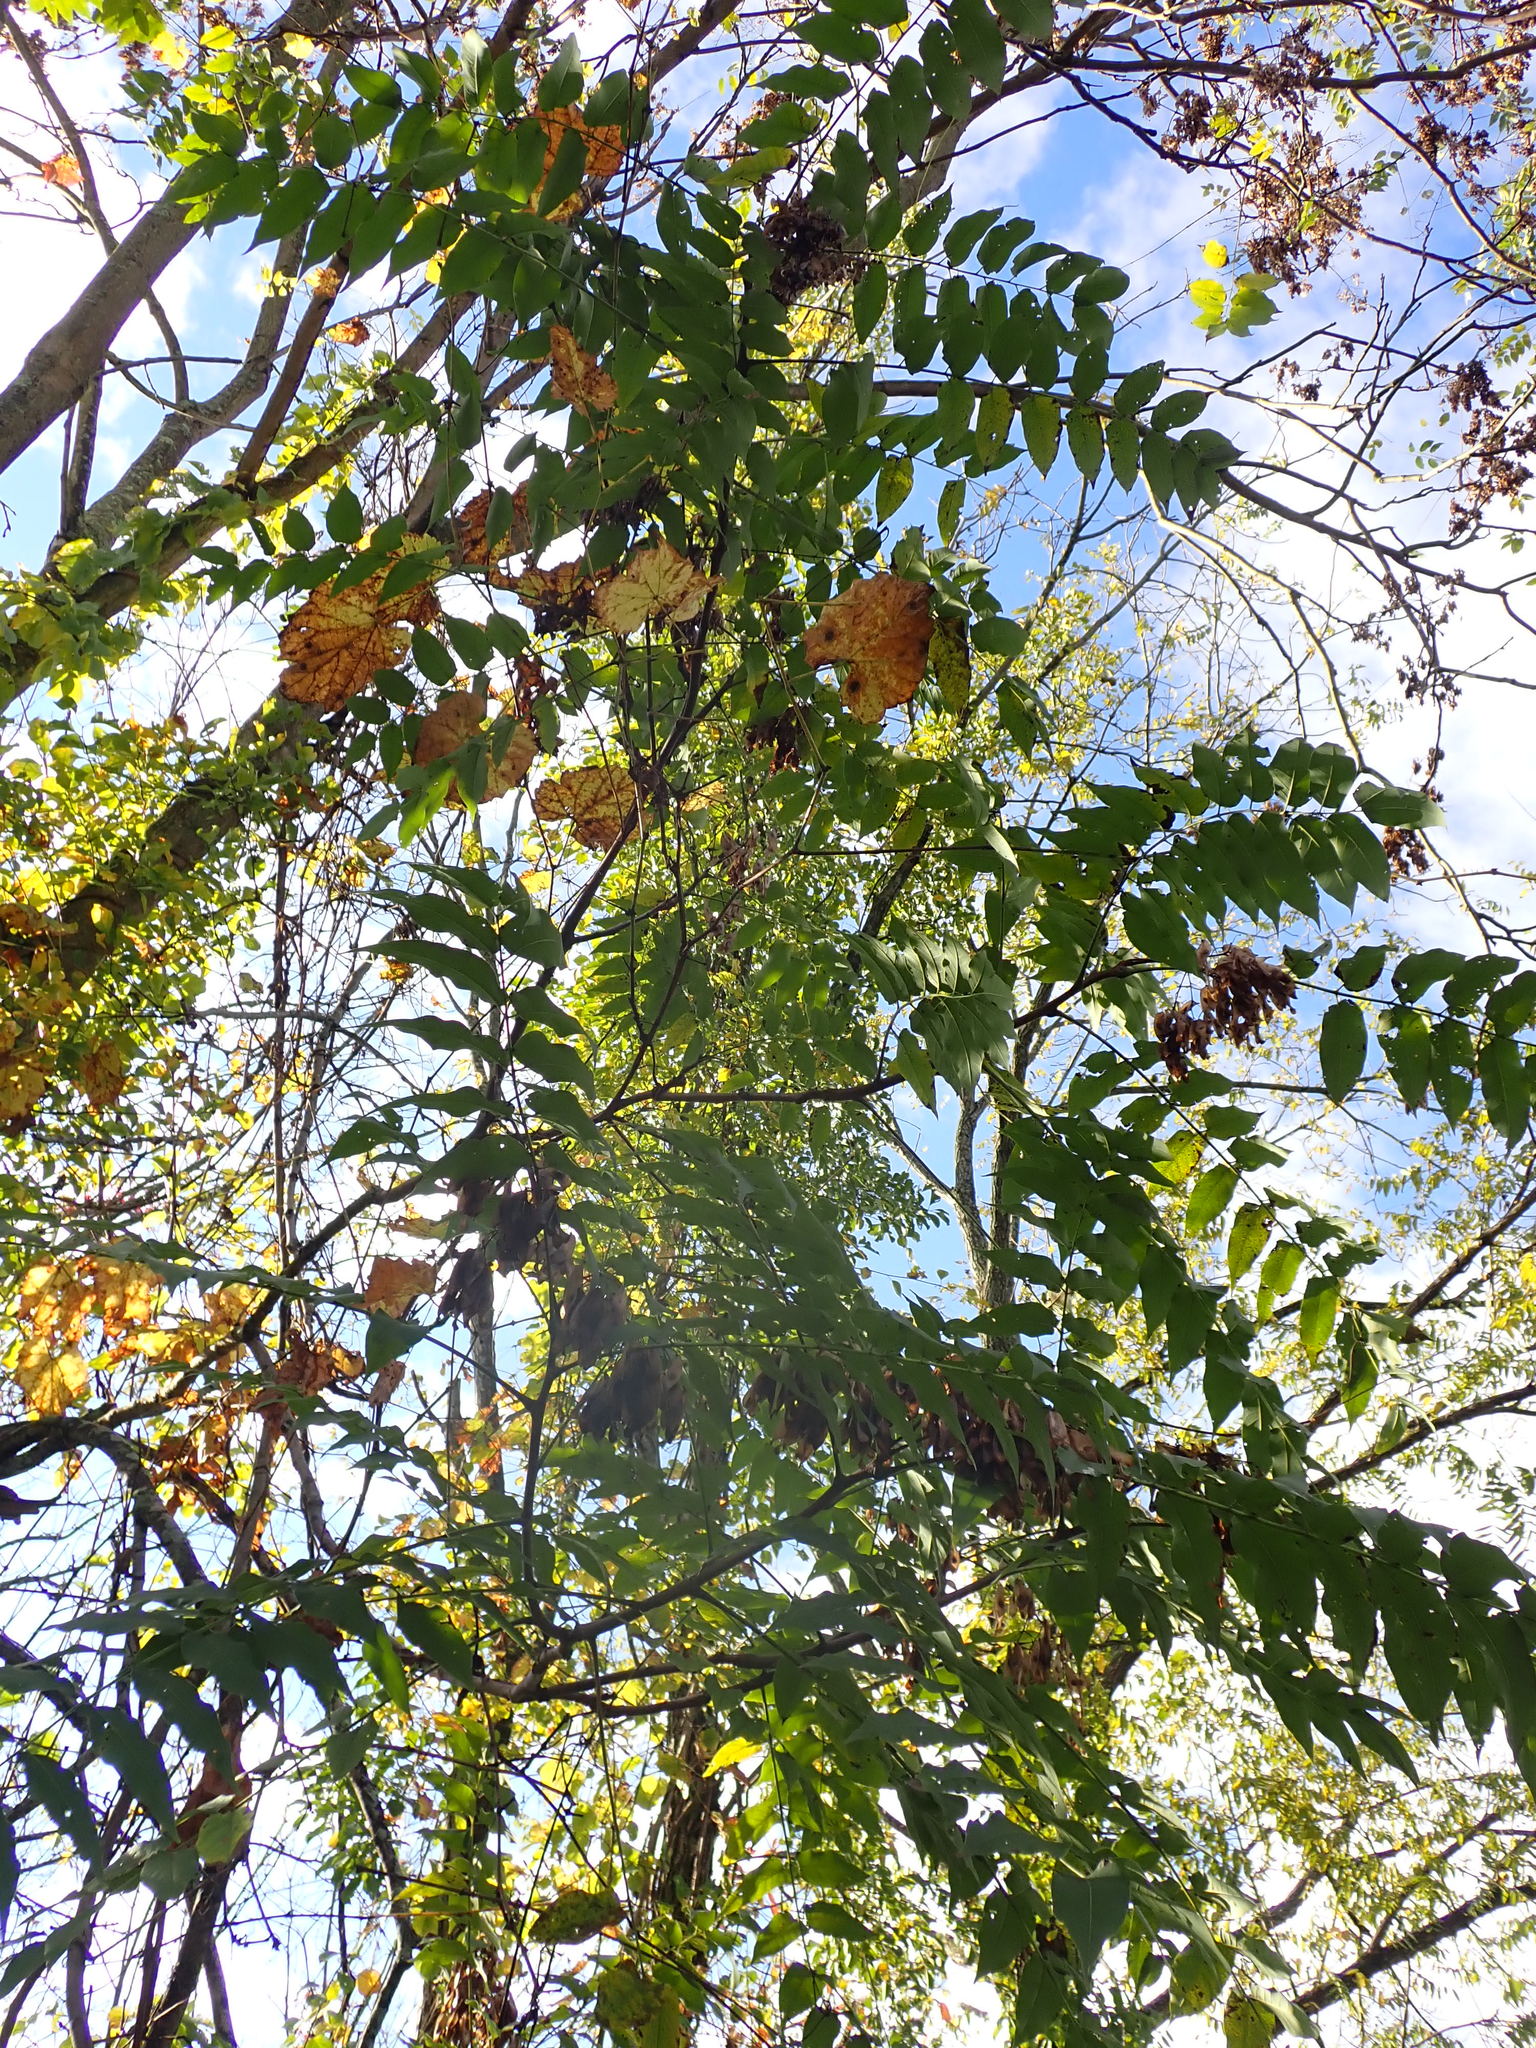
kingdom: Plantae
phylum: Tracheophyta
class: Magnoliopsida
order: Sapindales
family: Simaroubaceae
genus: Ailanthus
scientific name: Ailanthus altissima
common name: Tree-of-heaven
